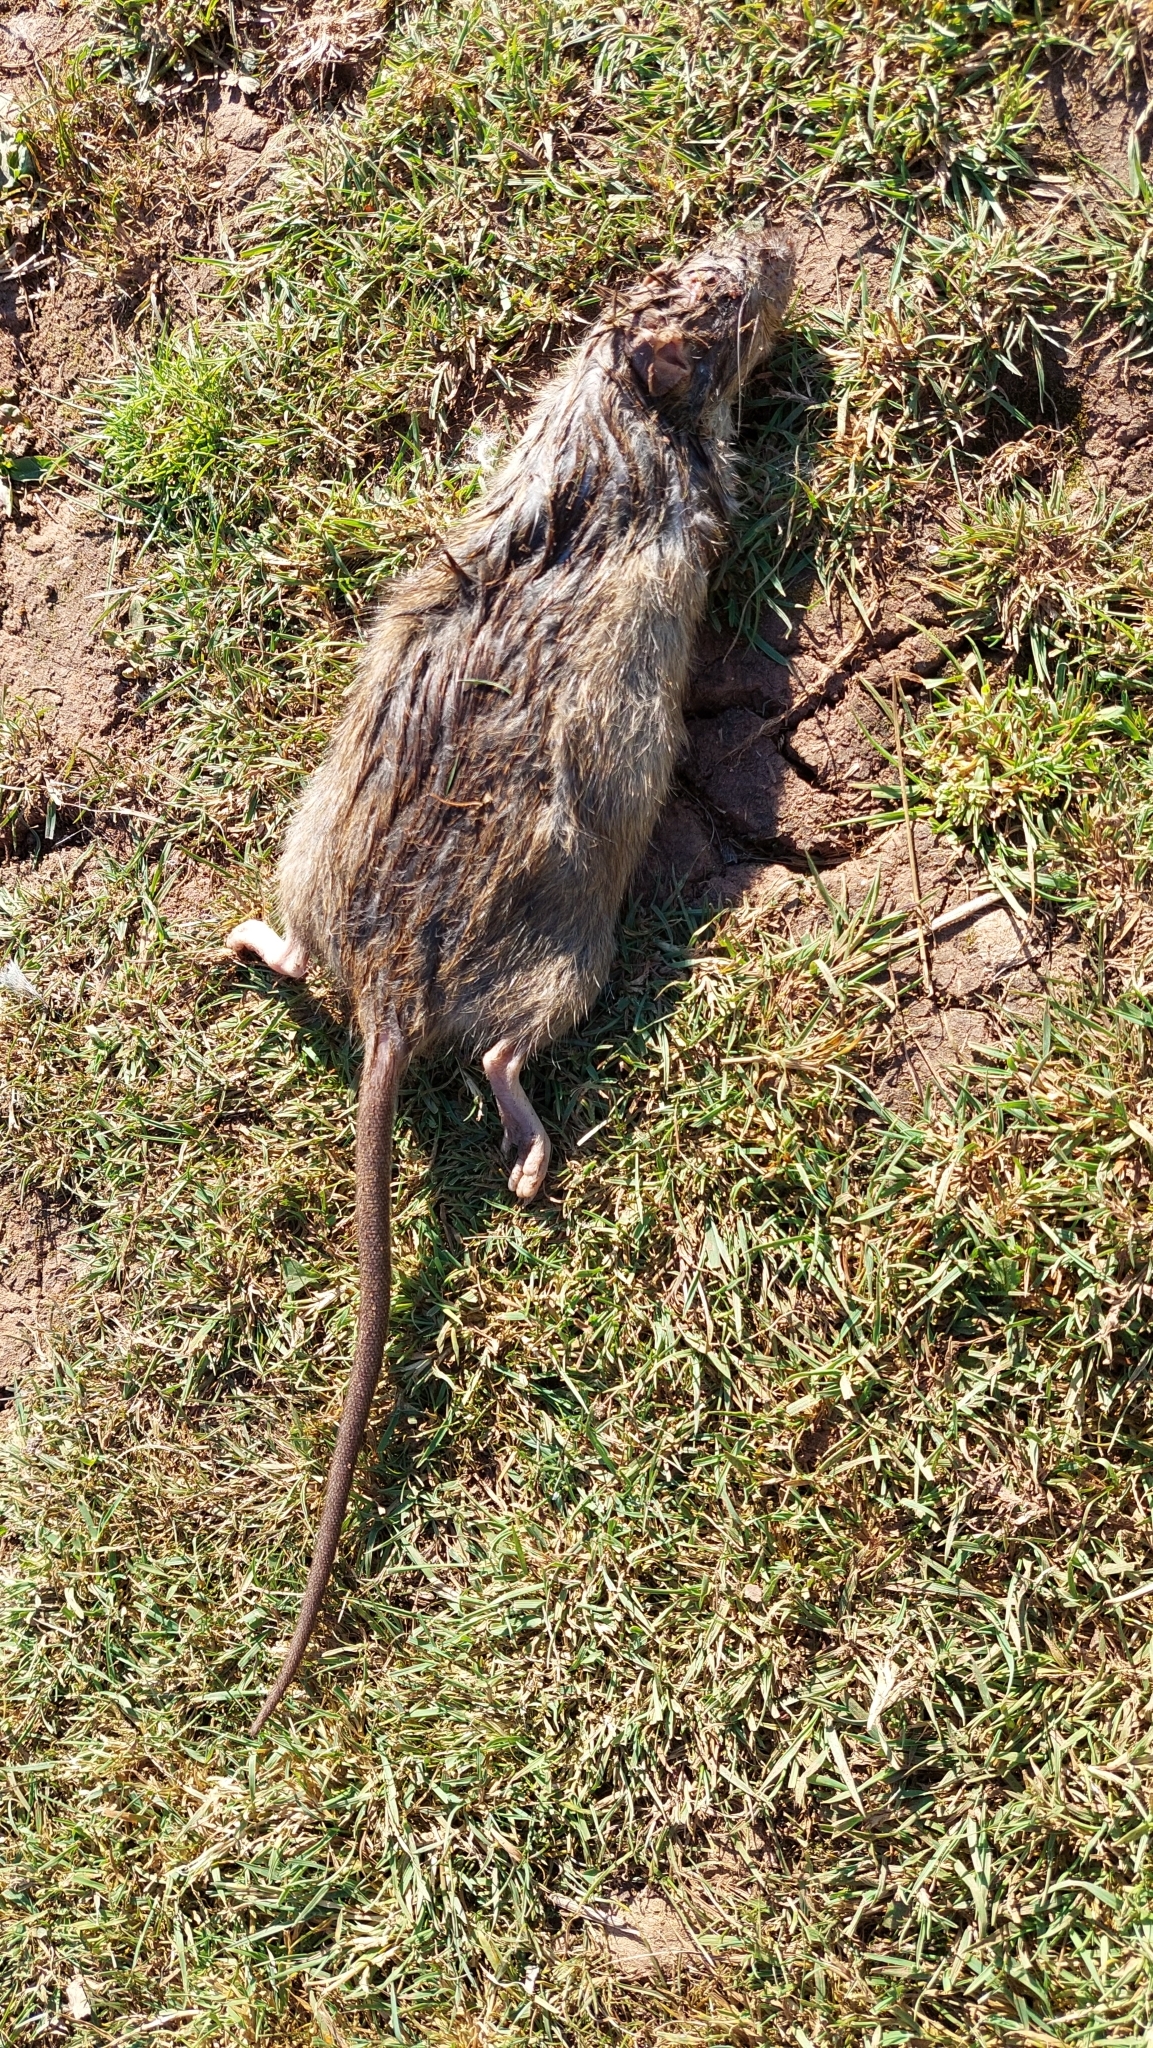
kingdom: Animalia
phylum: Chordata
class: Mammalia
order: Rodentia
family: Muridae
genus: Rattus
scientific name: Rattus norvegicus
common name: Brown rat
